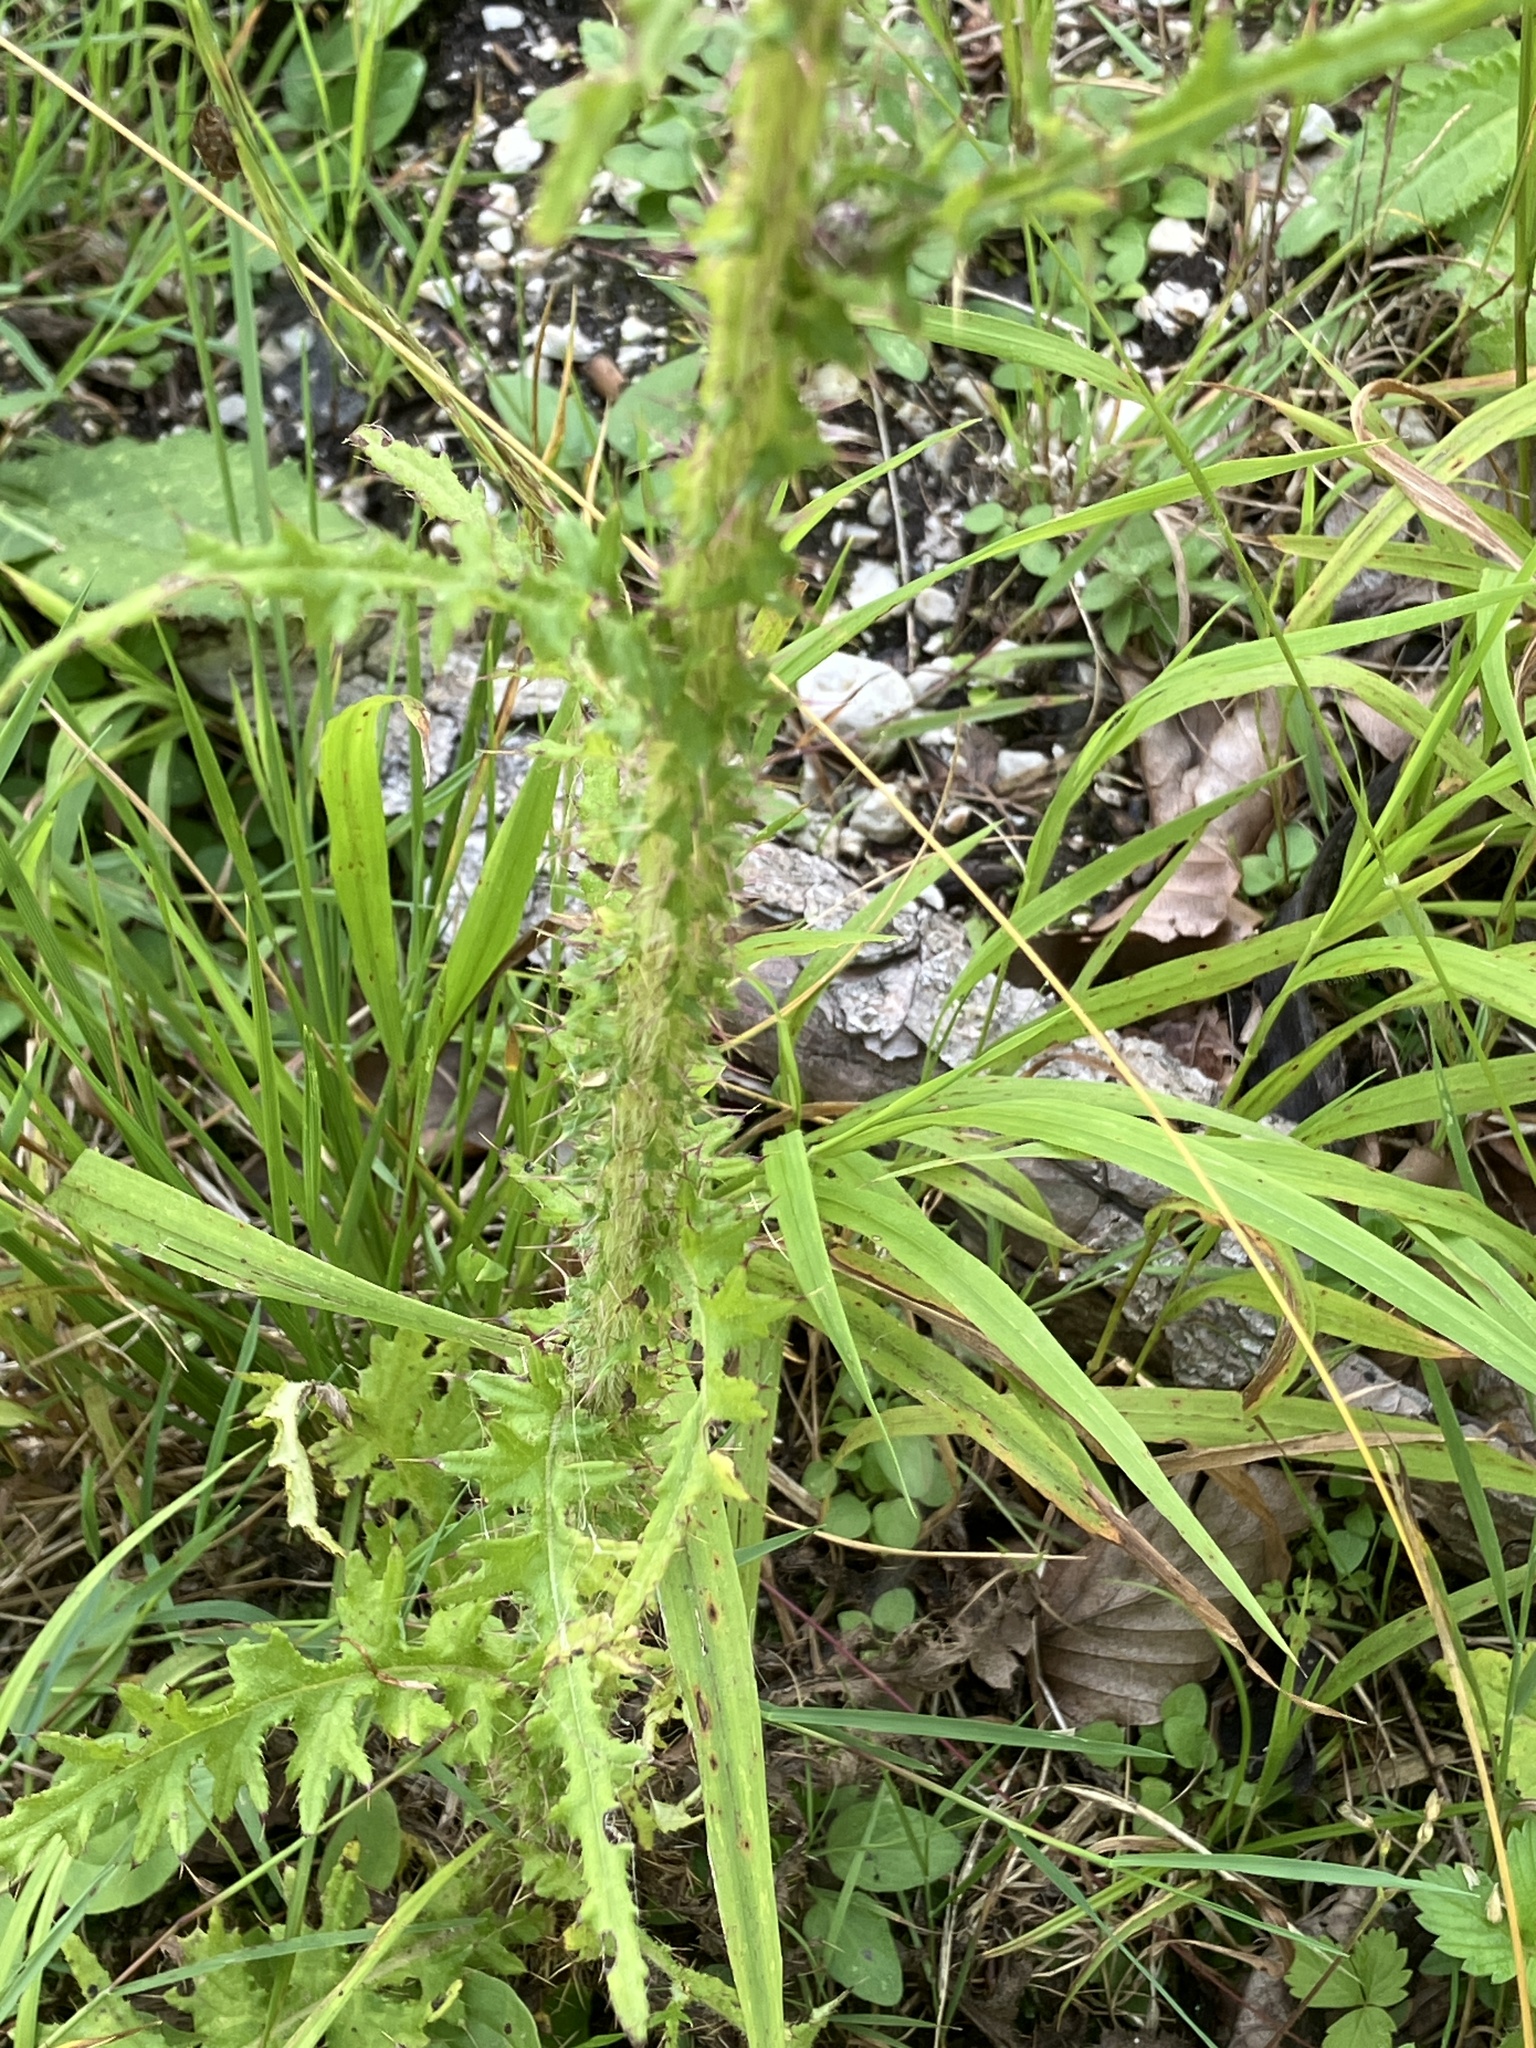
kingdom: Plantae
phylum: Tracheophyta
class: Magnoliopsida
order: Asterales
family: Asteraceae
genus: Cirsium
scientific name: Cirsium palustre
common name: Marsh thistle
